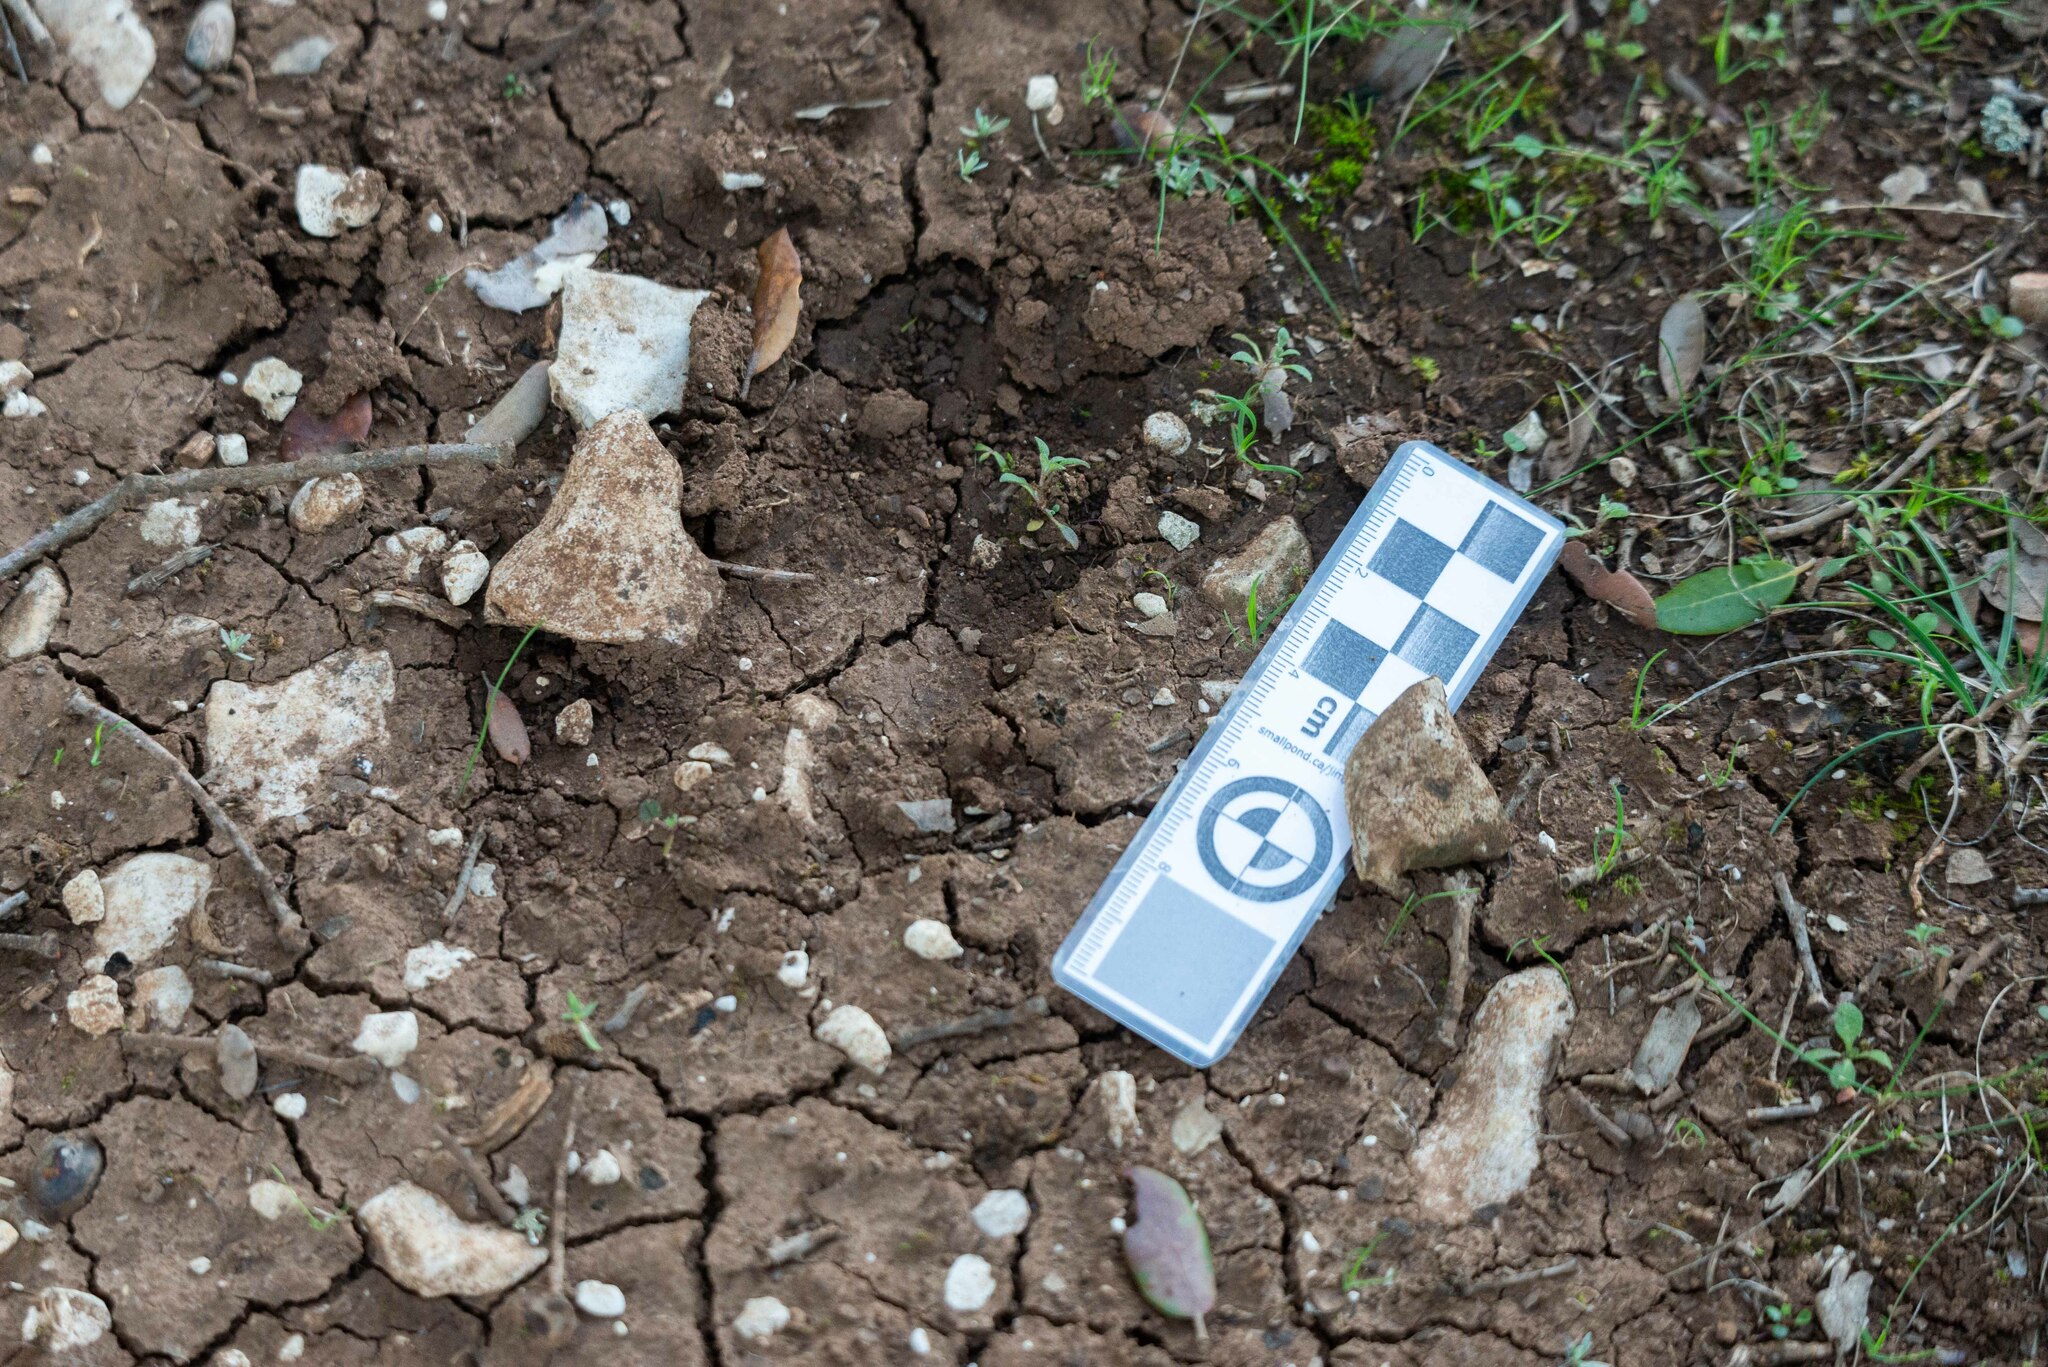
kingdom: Animalia
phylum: Chordata
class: Mammalia
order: Artiodactyla
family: Suidae
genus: Sus
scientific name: Sus scrofa
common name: Wild boar
